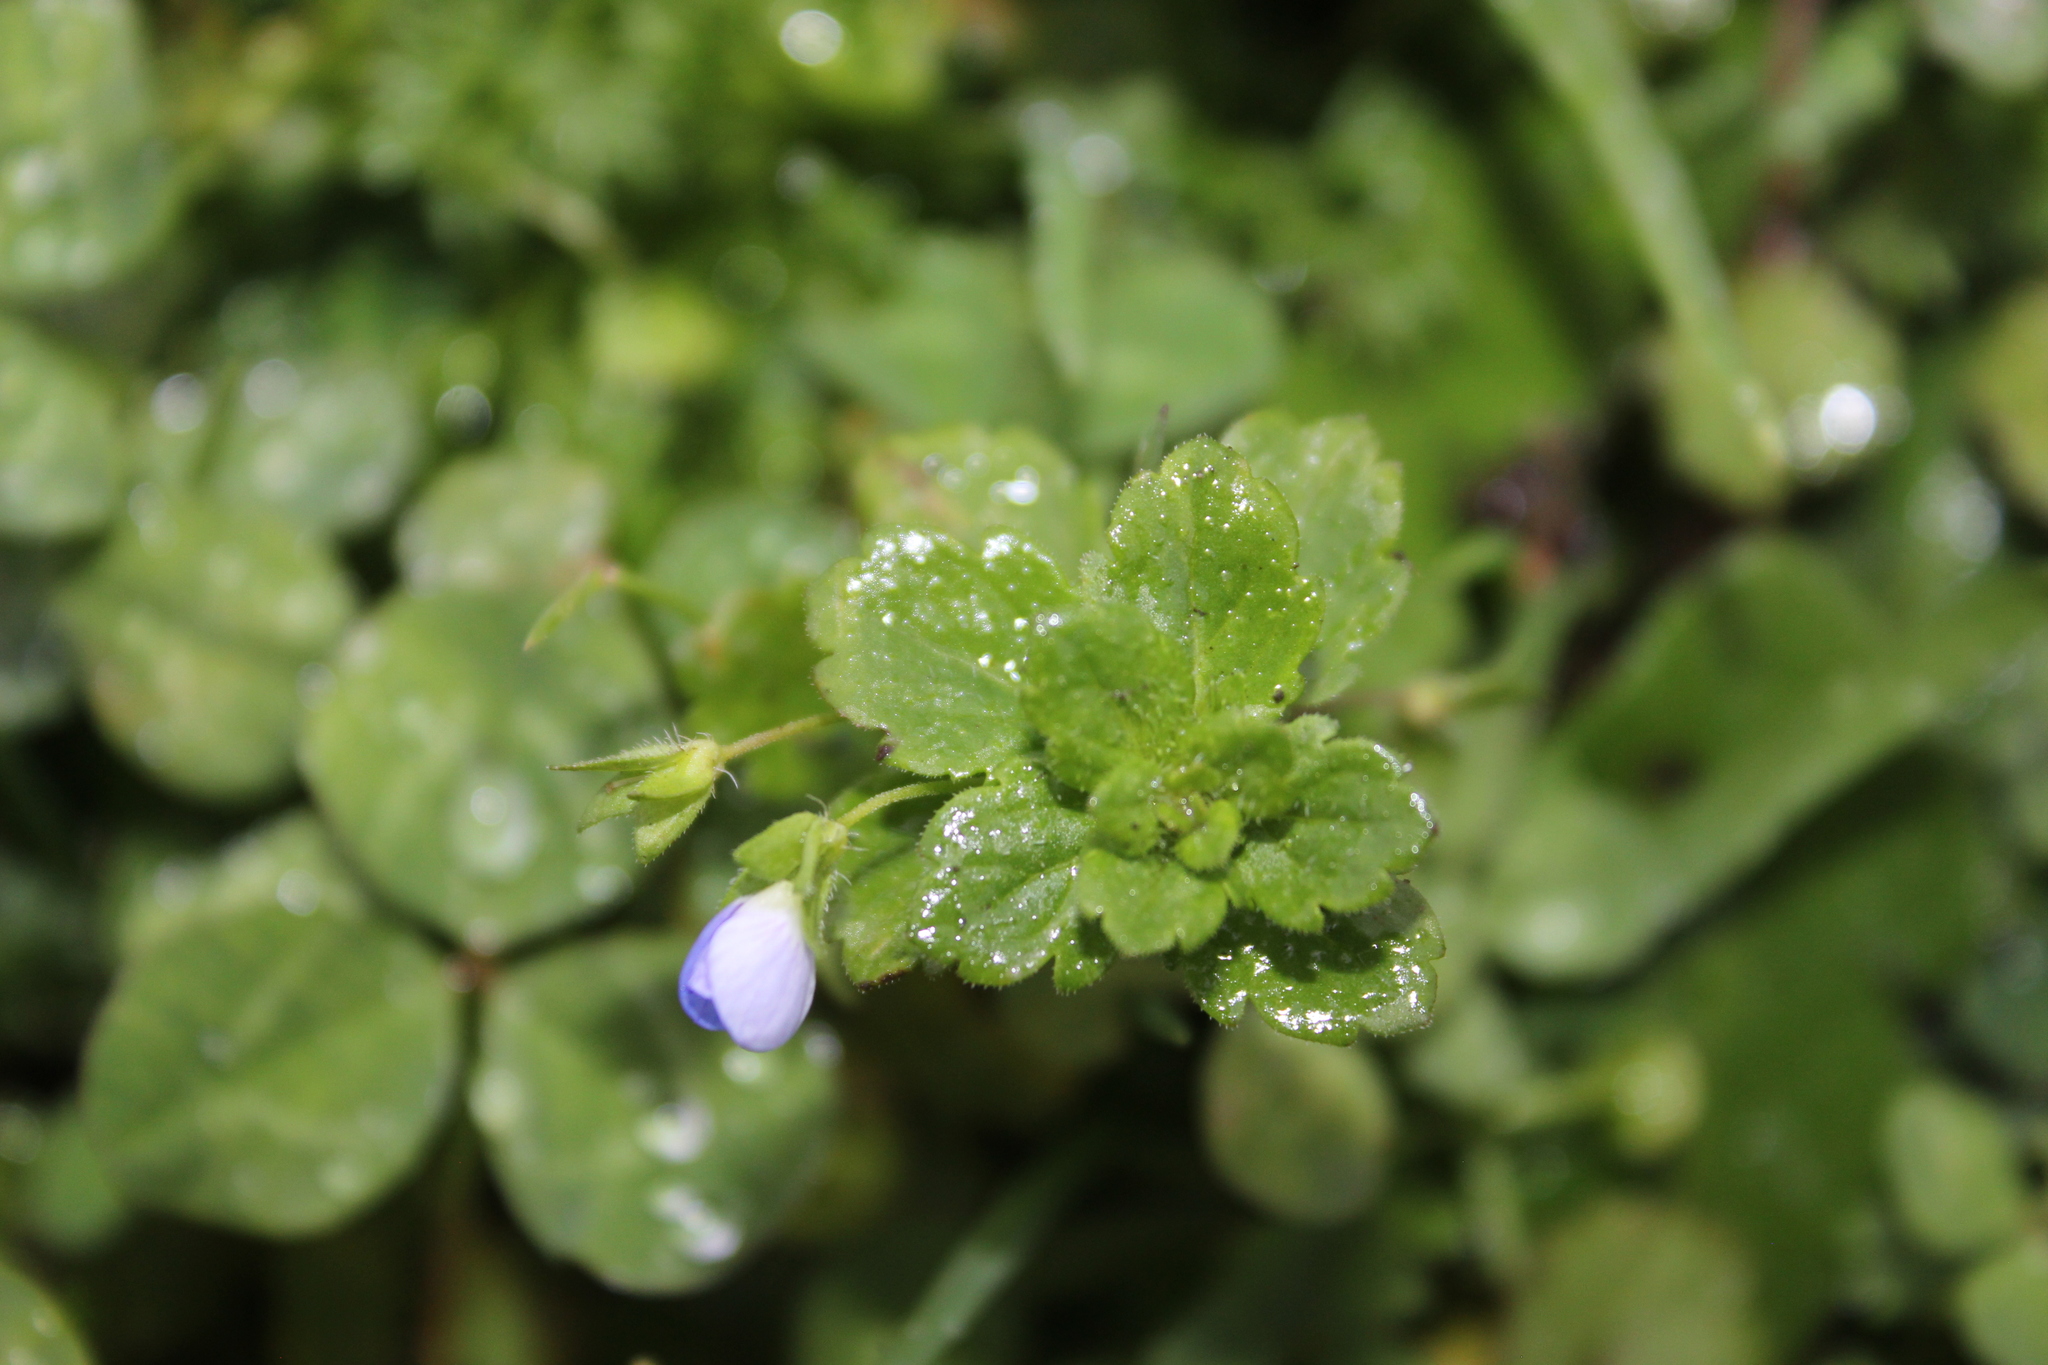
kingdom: Plantae
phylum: Tracheophyta
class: Magnoliopsida
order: Lamiales
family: Plantaginaceae
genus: Veronica
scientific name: Veronica persica
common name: Common field-speedwell
